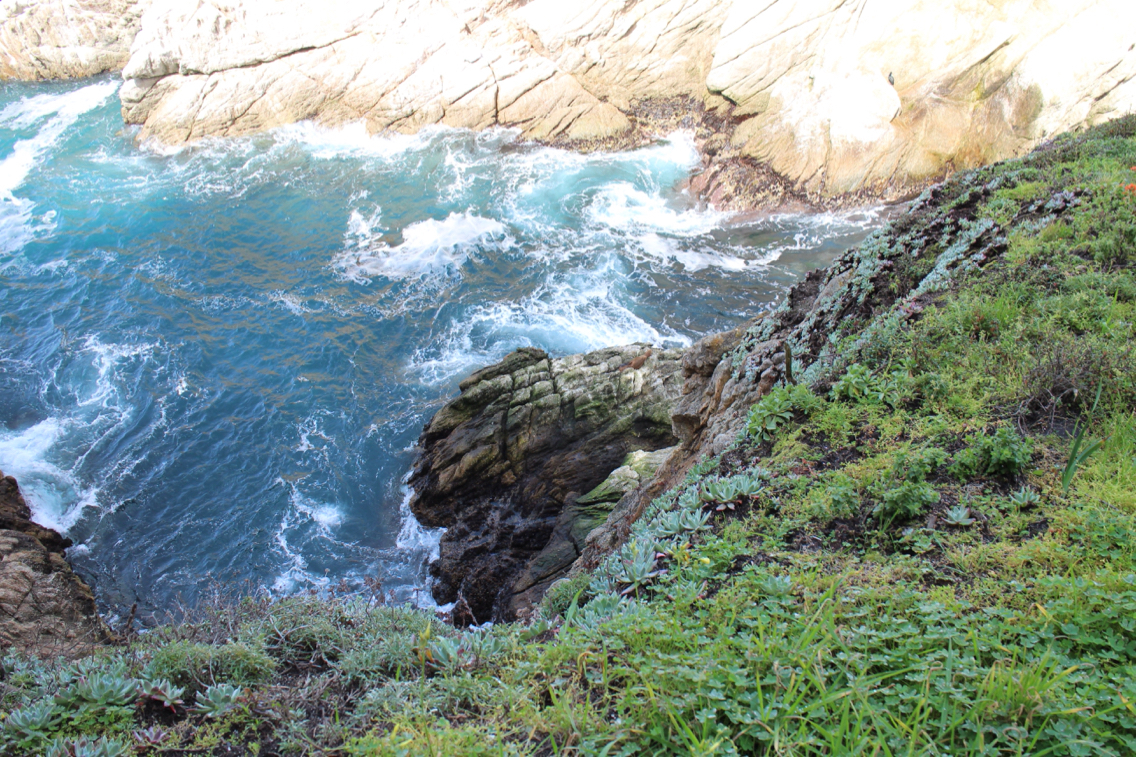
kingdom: Animalia
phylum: Chordata
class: Mammalia
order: Carnivora
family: Otariidae
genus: Zalophus
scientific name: Zalophus californianus
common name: California sea lion
